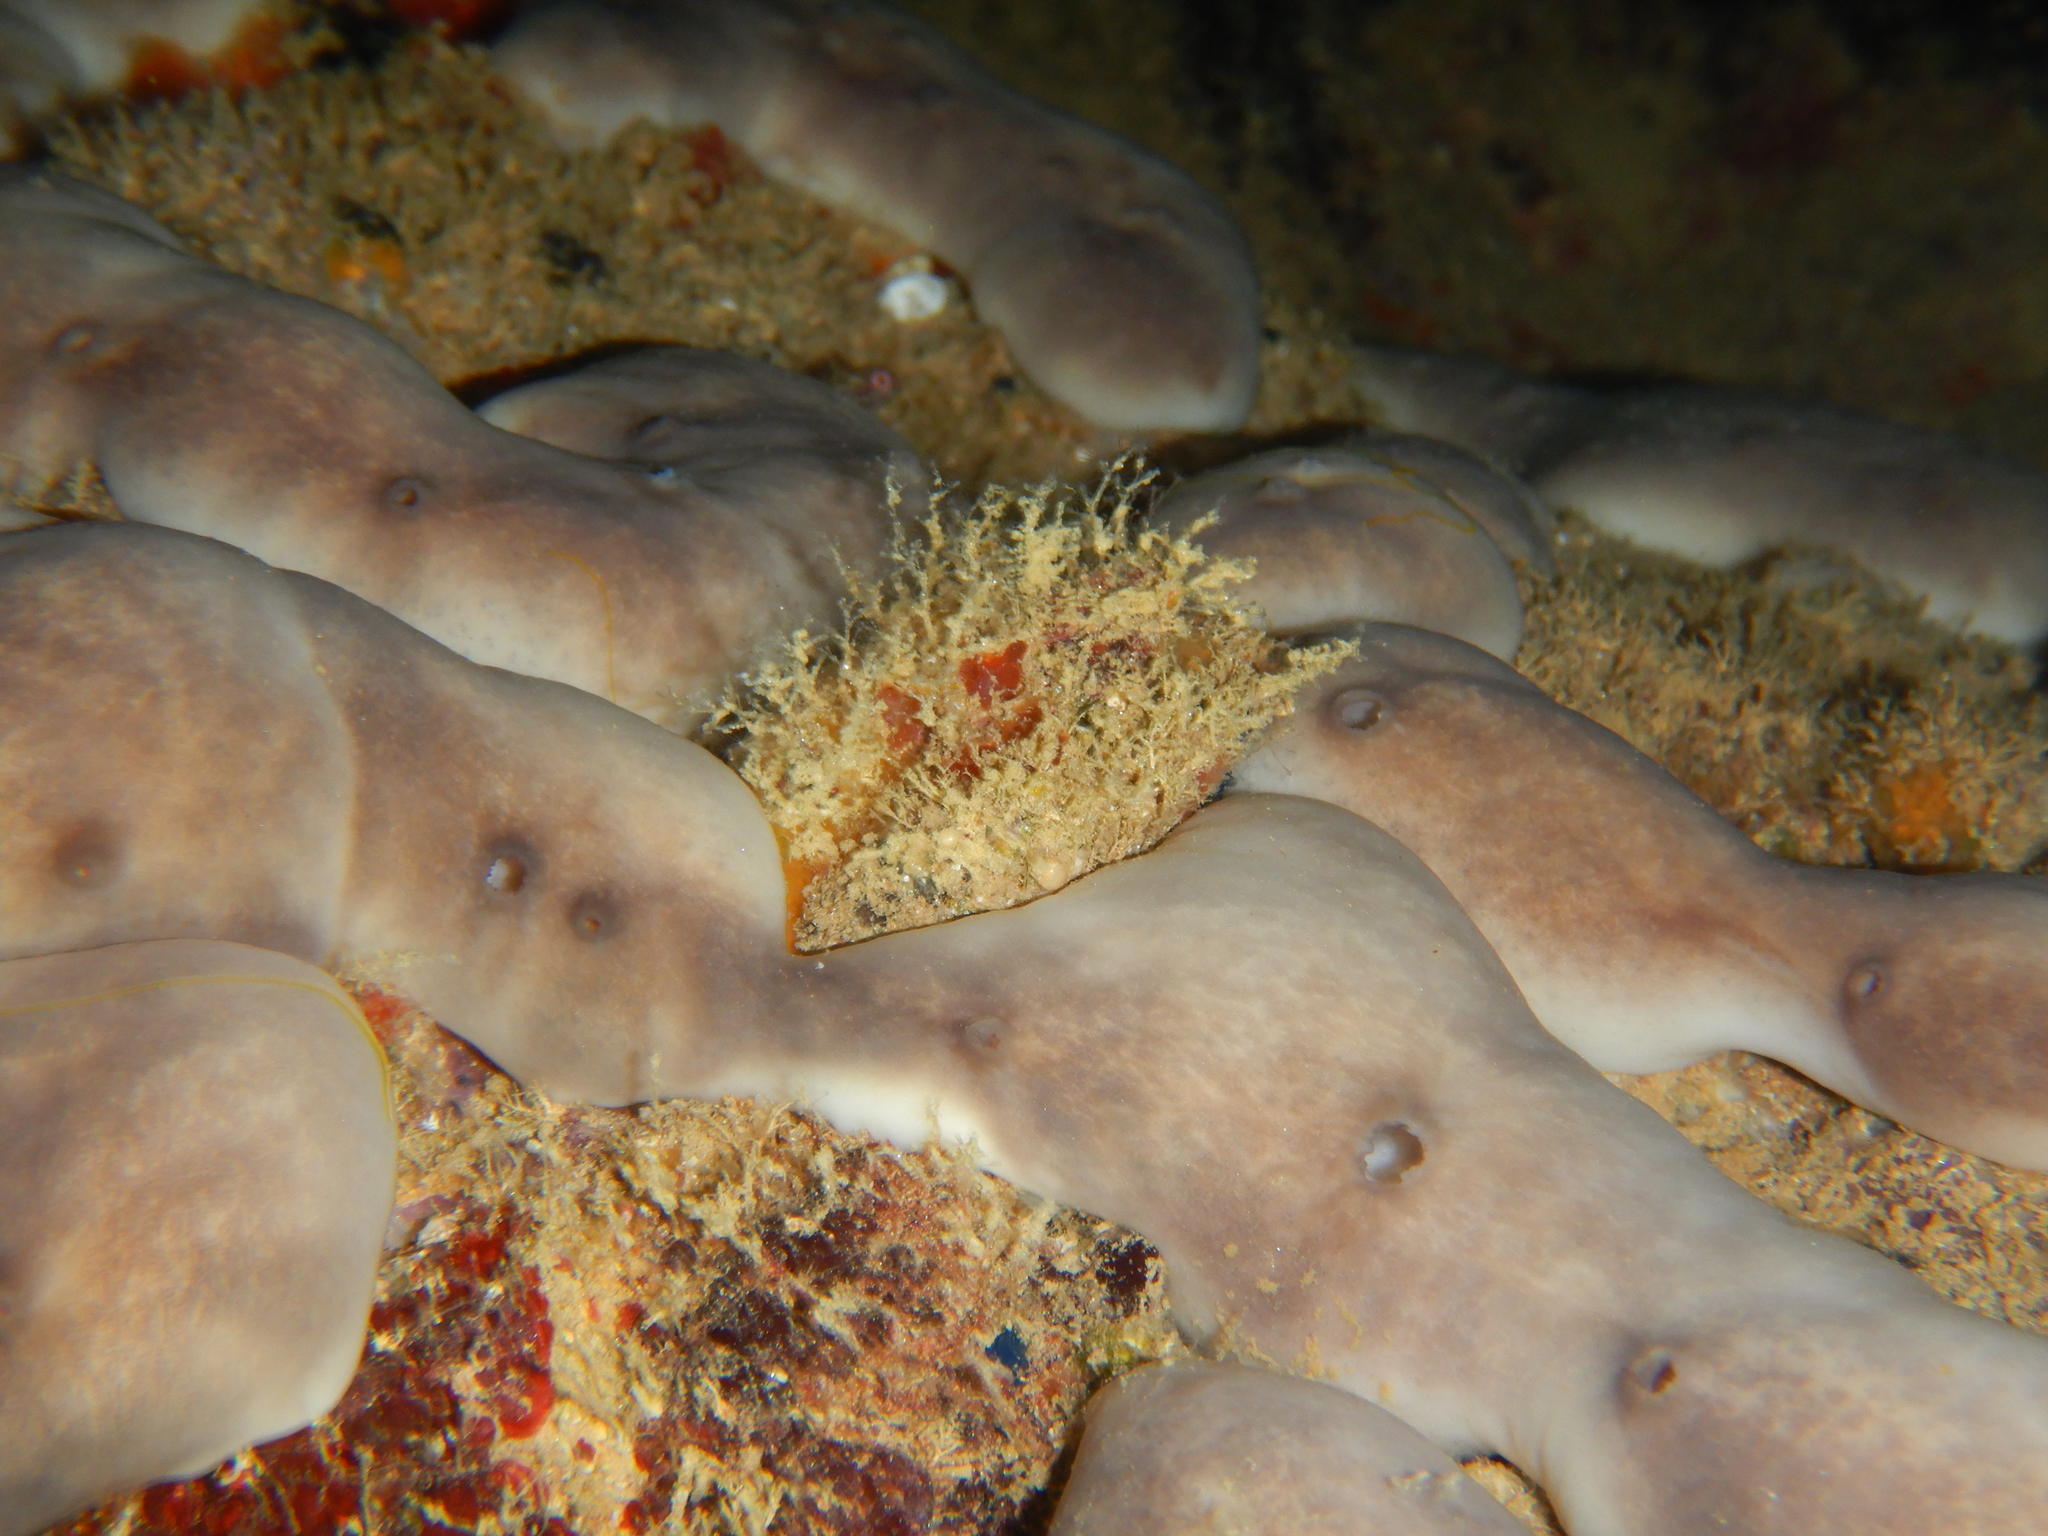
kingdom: Animalia
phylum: Porifera
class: Demospongiae
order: Chondrosiida
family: Chondrosiidae
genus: Chondrosia
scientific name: Chondrosia reniformis
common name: Chicken liver sponge
